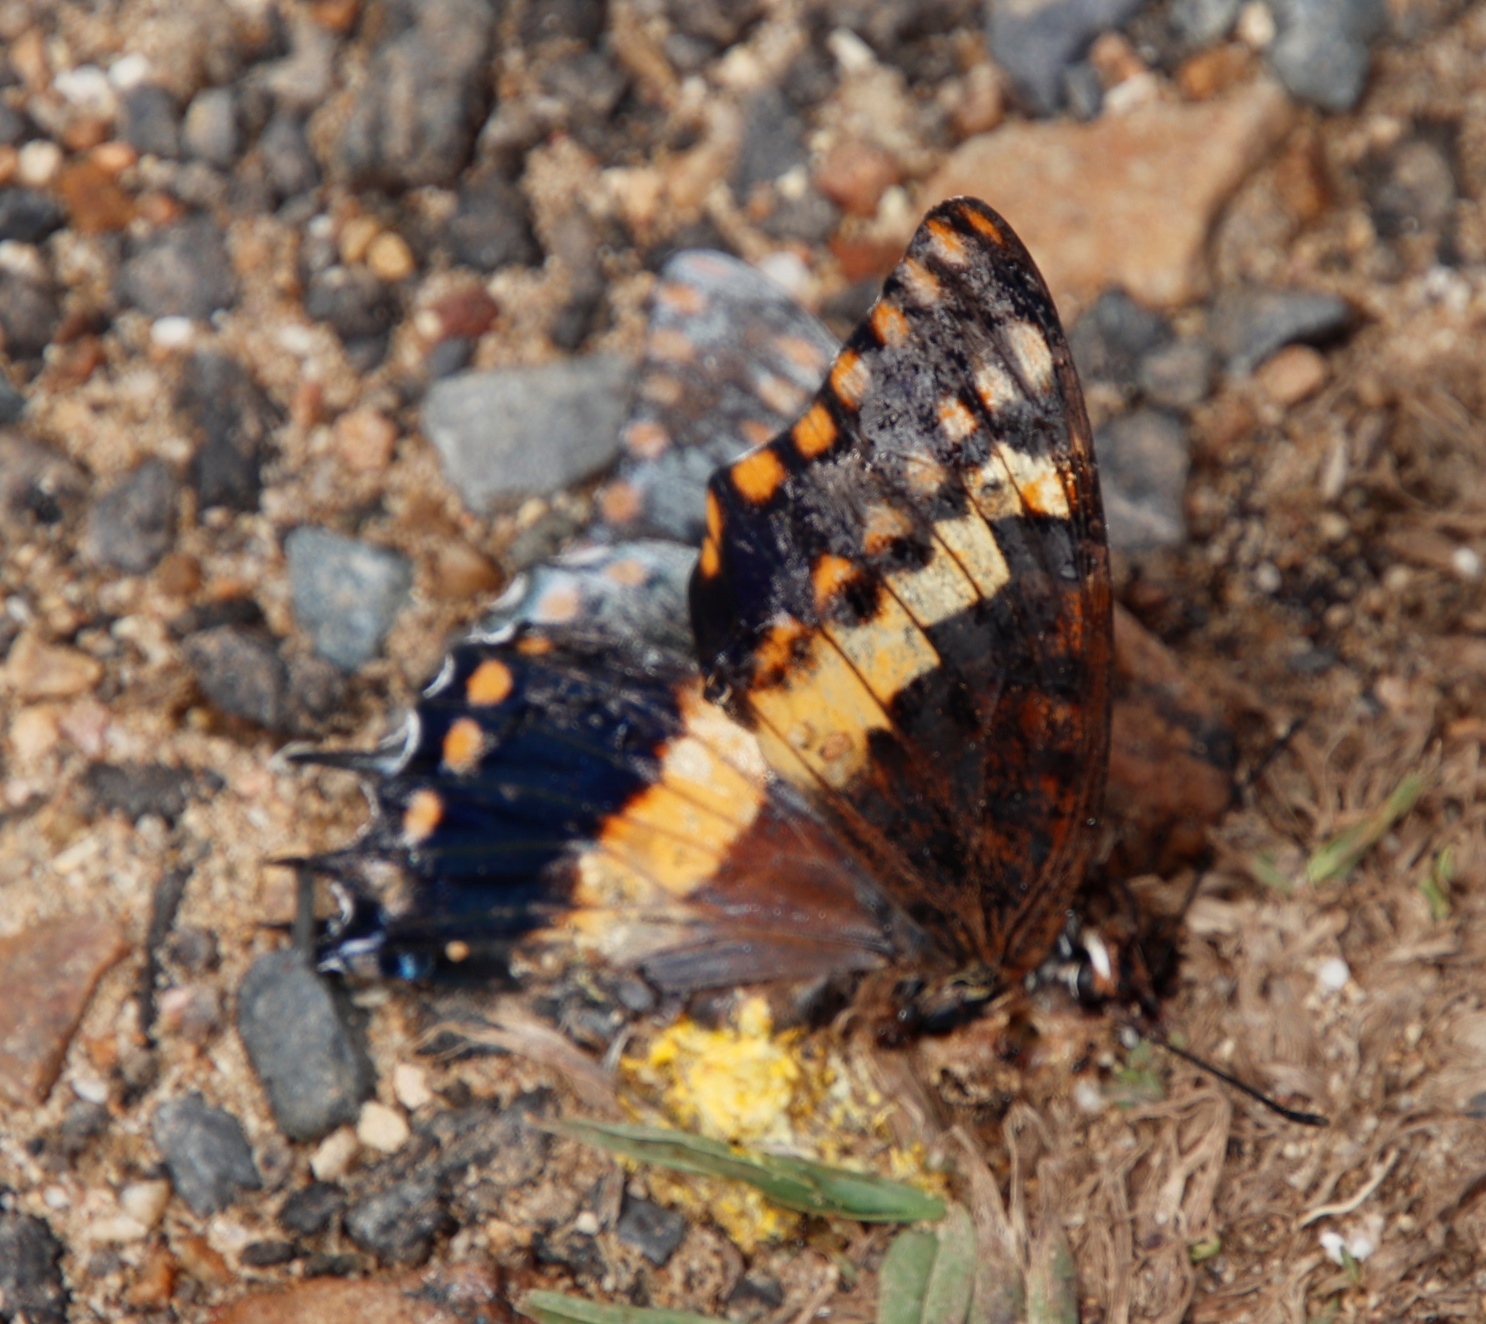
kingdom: Animalia
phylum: Arthropoda
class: Insecta
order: Lepidoptera
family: Nymphalidae
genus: Charaxes
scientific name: Charaxes pelias
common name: Protea charaxes
